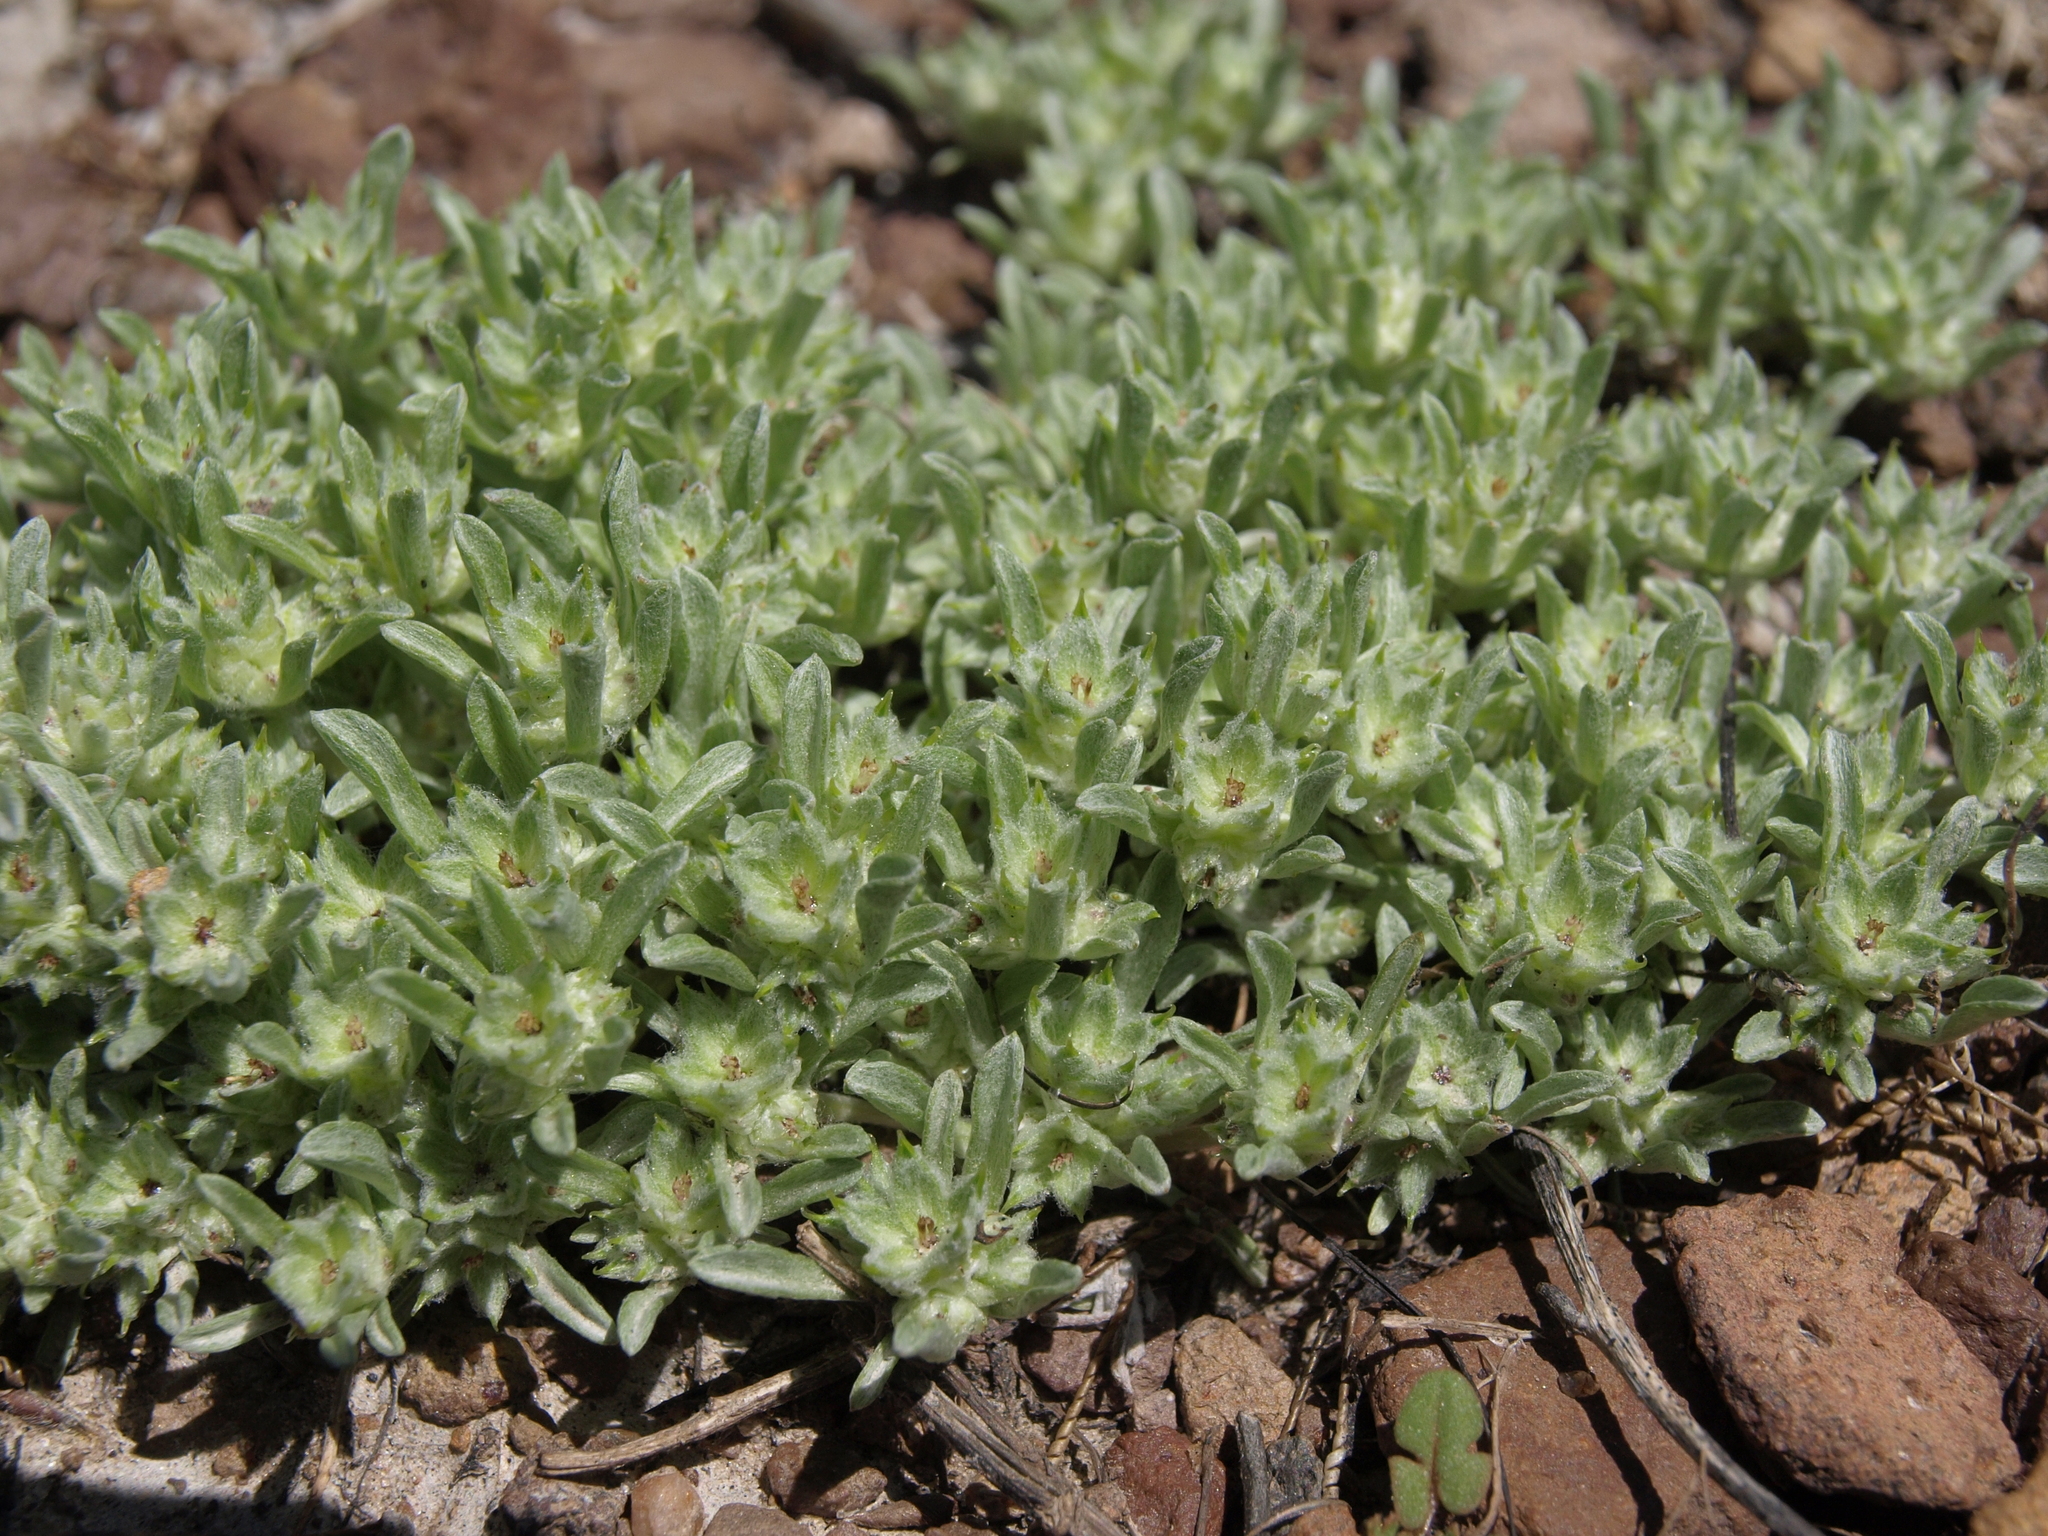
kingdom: Plantae
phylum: Tracheophyta
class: Magnoliopsida
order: Asterales
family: Asteraceae
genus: Ancistrocarphus
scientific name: Ancistrocarphus filagineus
